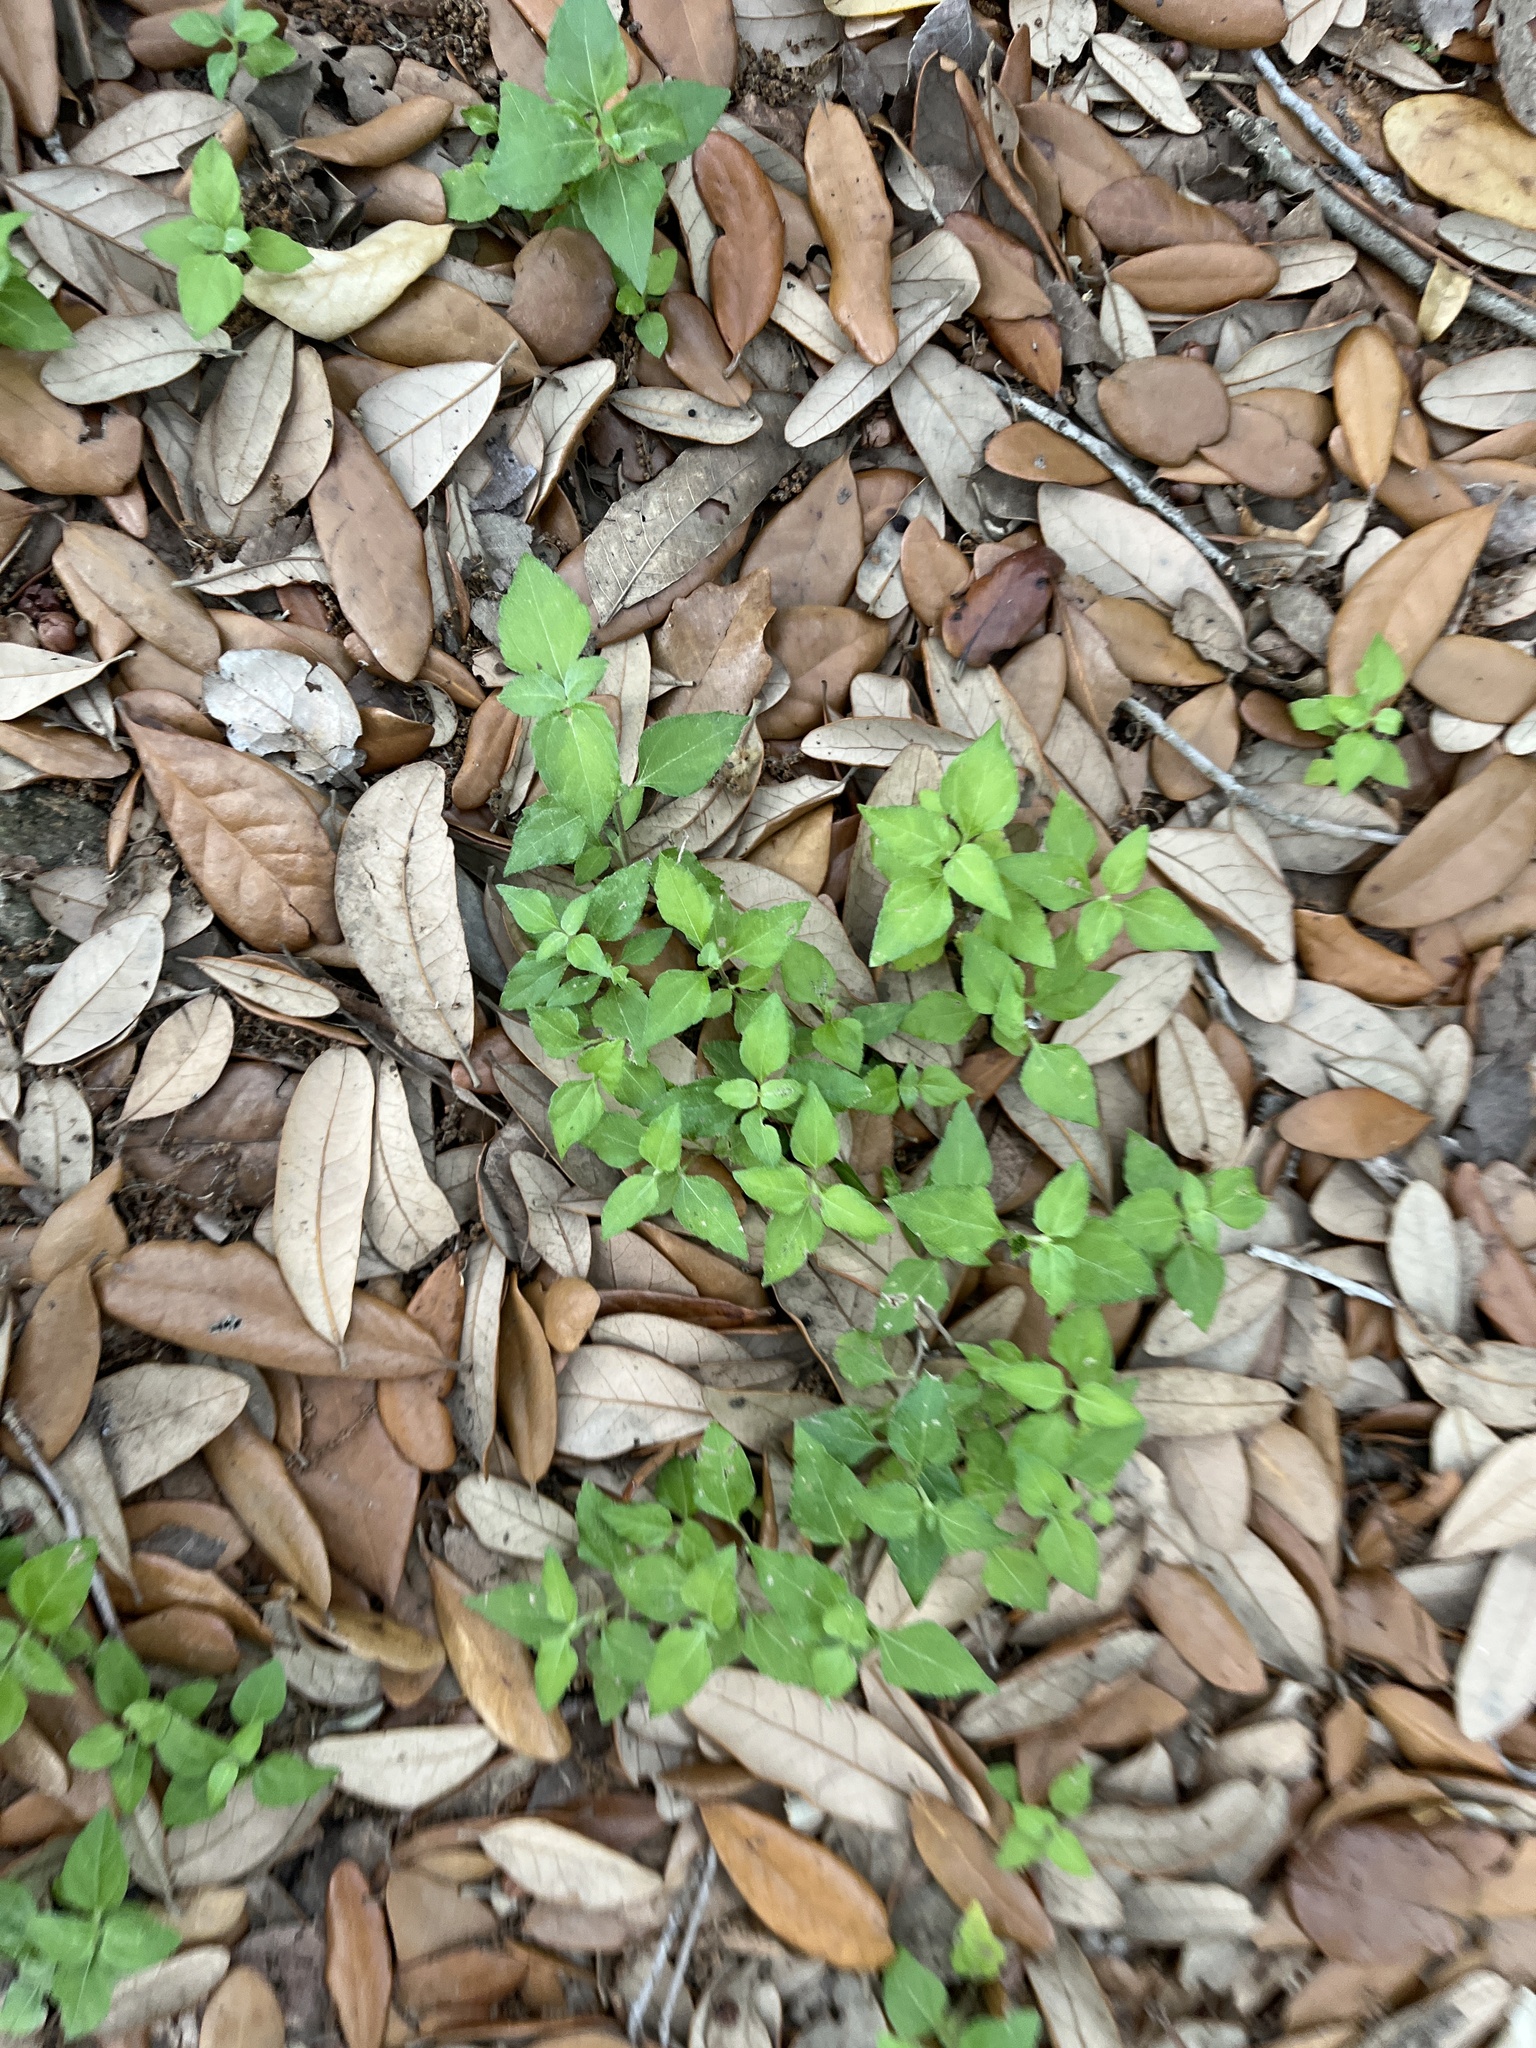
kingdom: Plantae
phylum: Tracheophyta
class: Magnoliopsida
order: Asterales
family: Asteraceae
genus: Calyptocarpus
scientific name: Calyptocarpus vialis
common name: Straggler daisy
